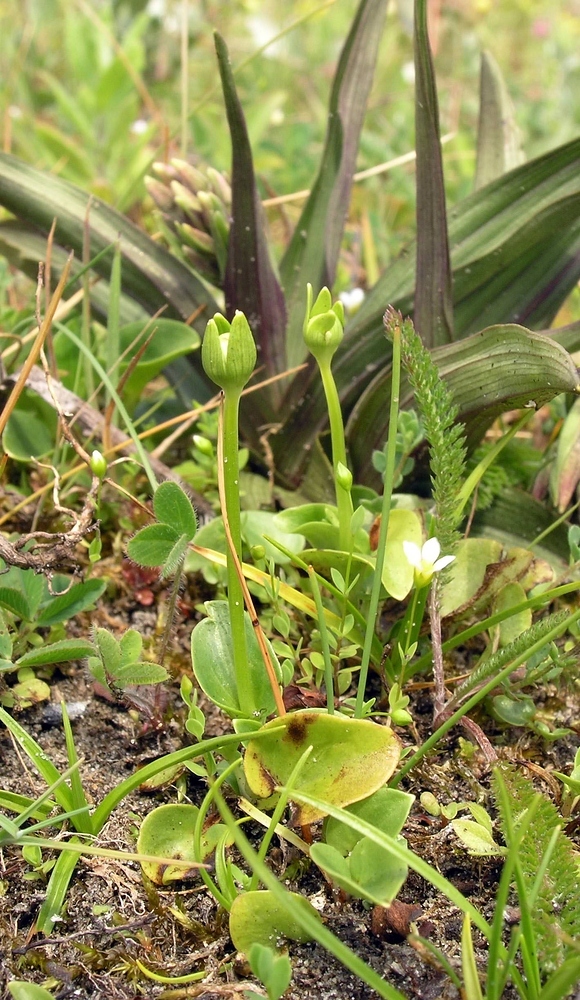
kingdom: Plantae
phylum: Tracheophyta
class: Magnoliopsida
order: Celastrales
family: Parnassiaceae
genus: Parnassia
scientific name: Parnassia palustris
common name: Grass-of-parnassus
